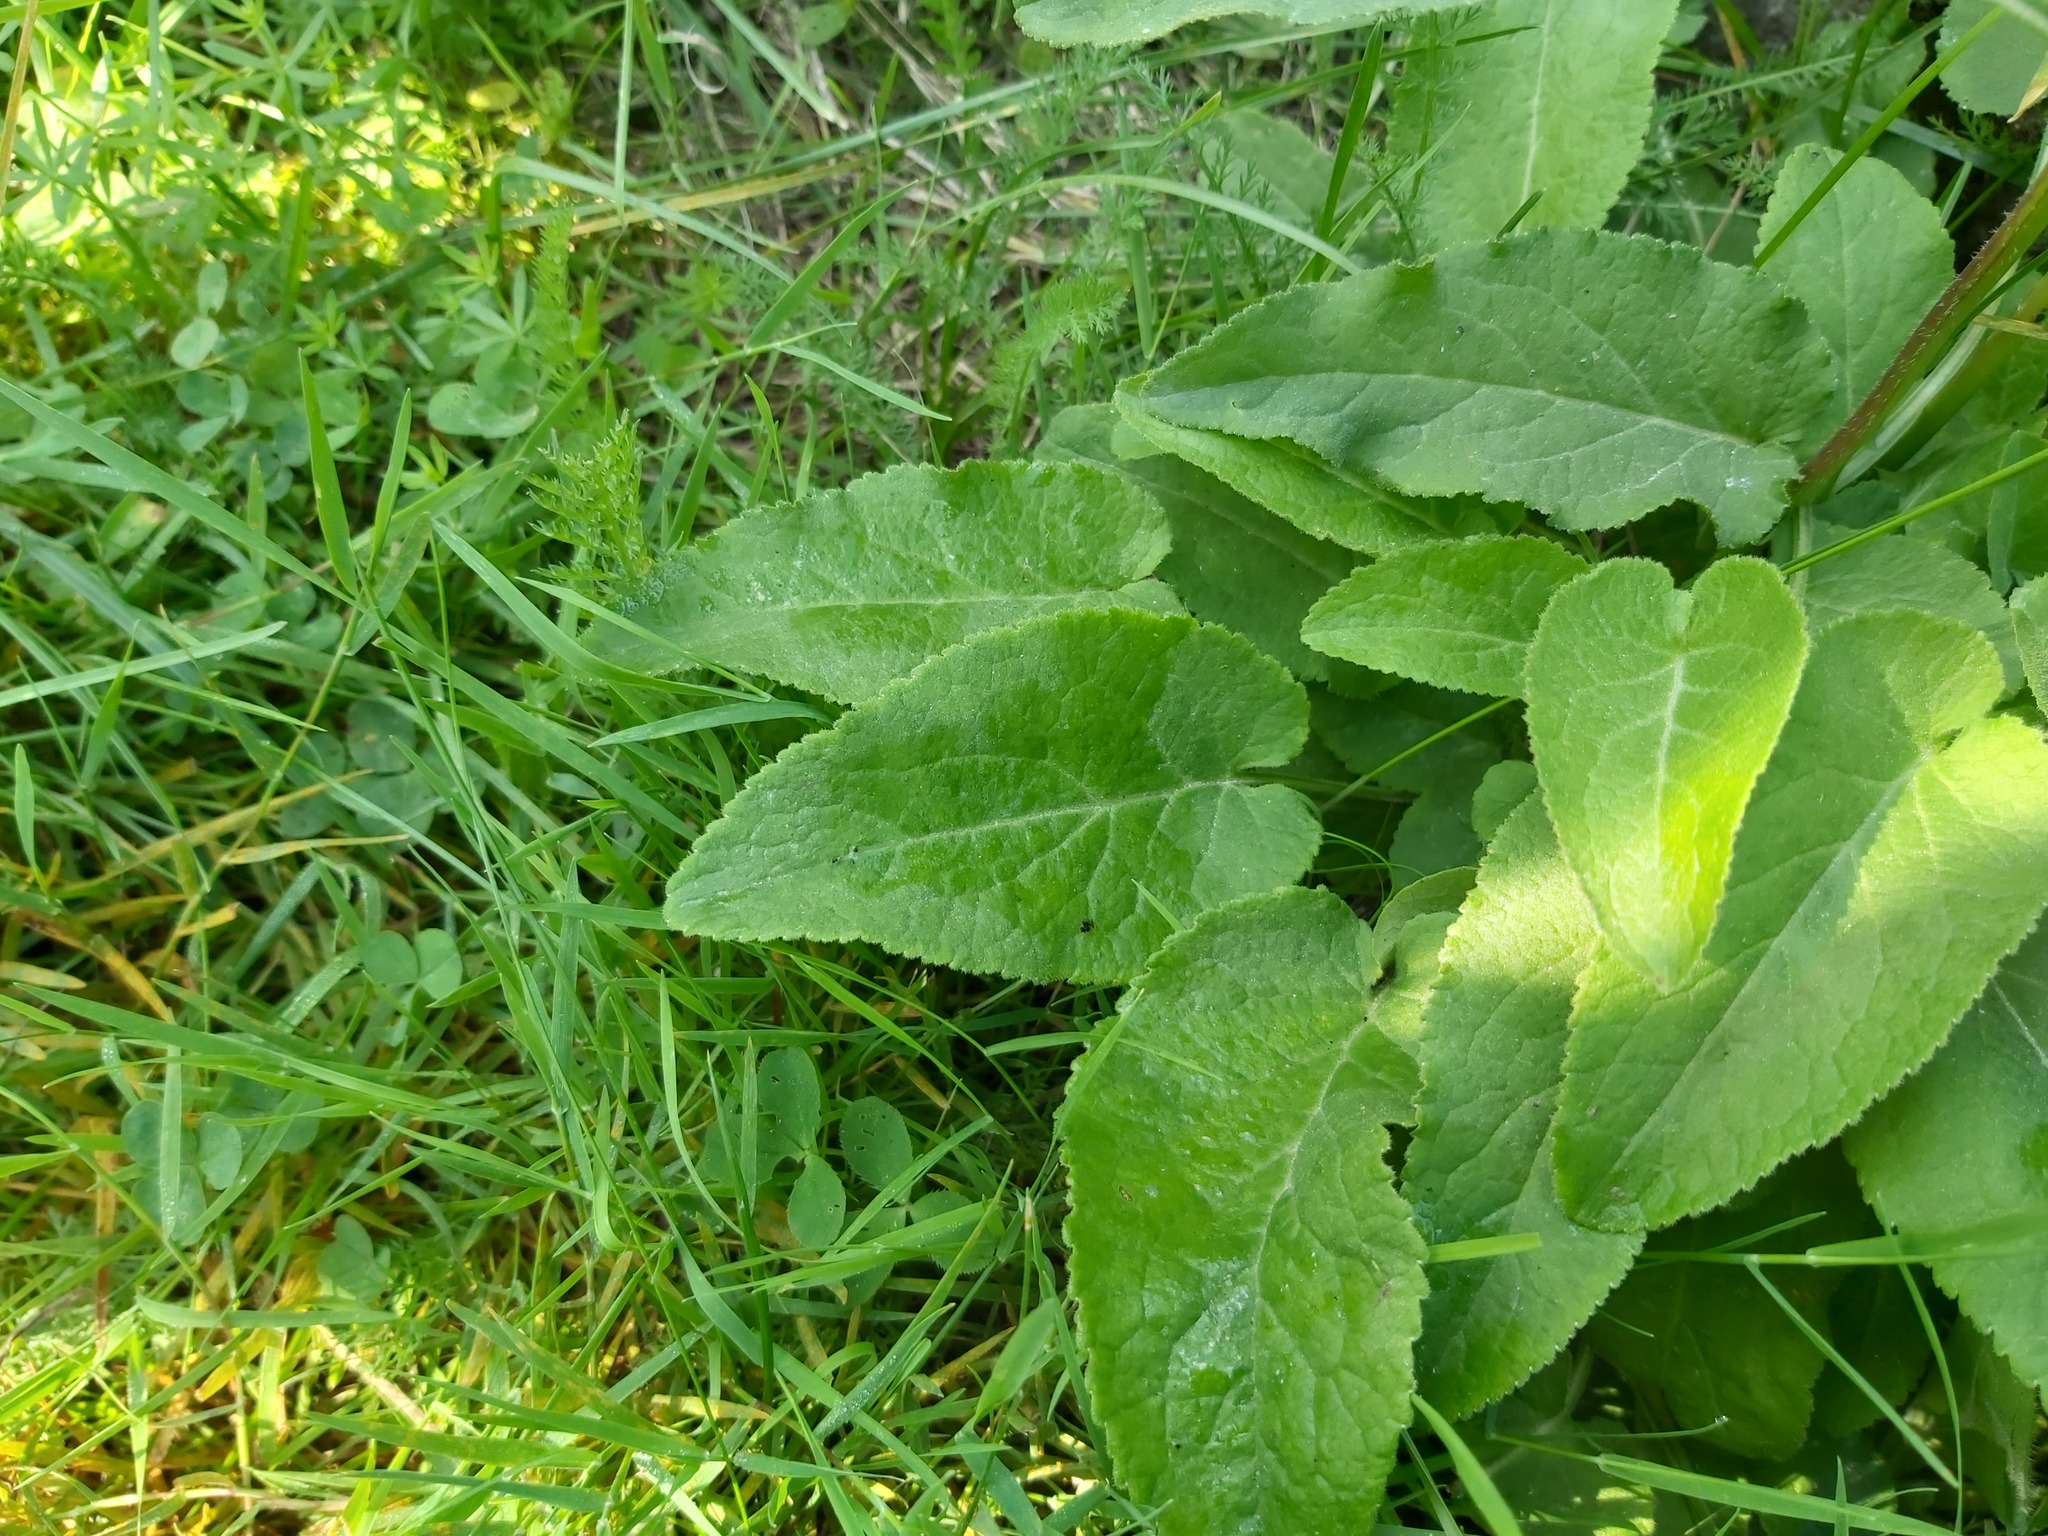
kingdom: Plantae
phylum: Tracheophyta
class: Magnoliopsida
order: Asterales
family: Campanulaceae
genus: Campanula
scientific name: Campanula glomerata
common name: Clustered bellflower
